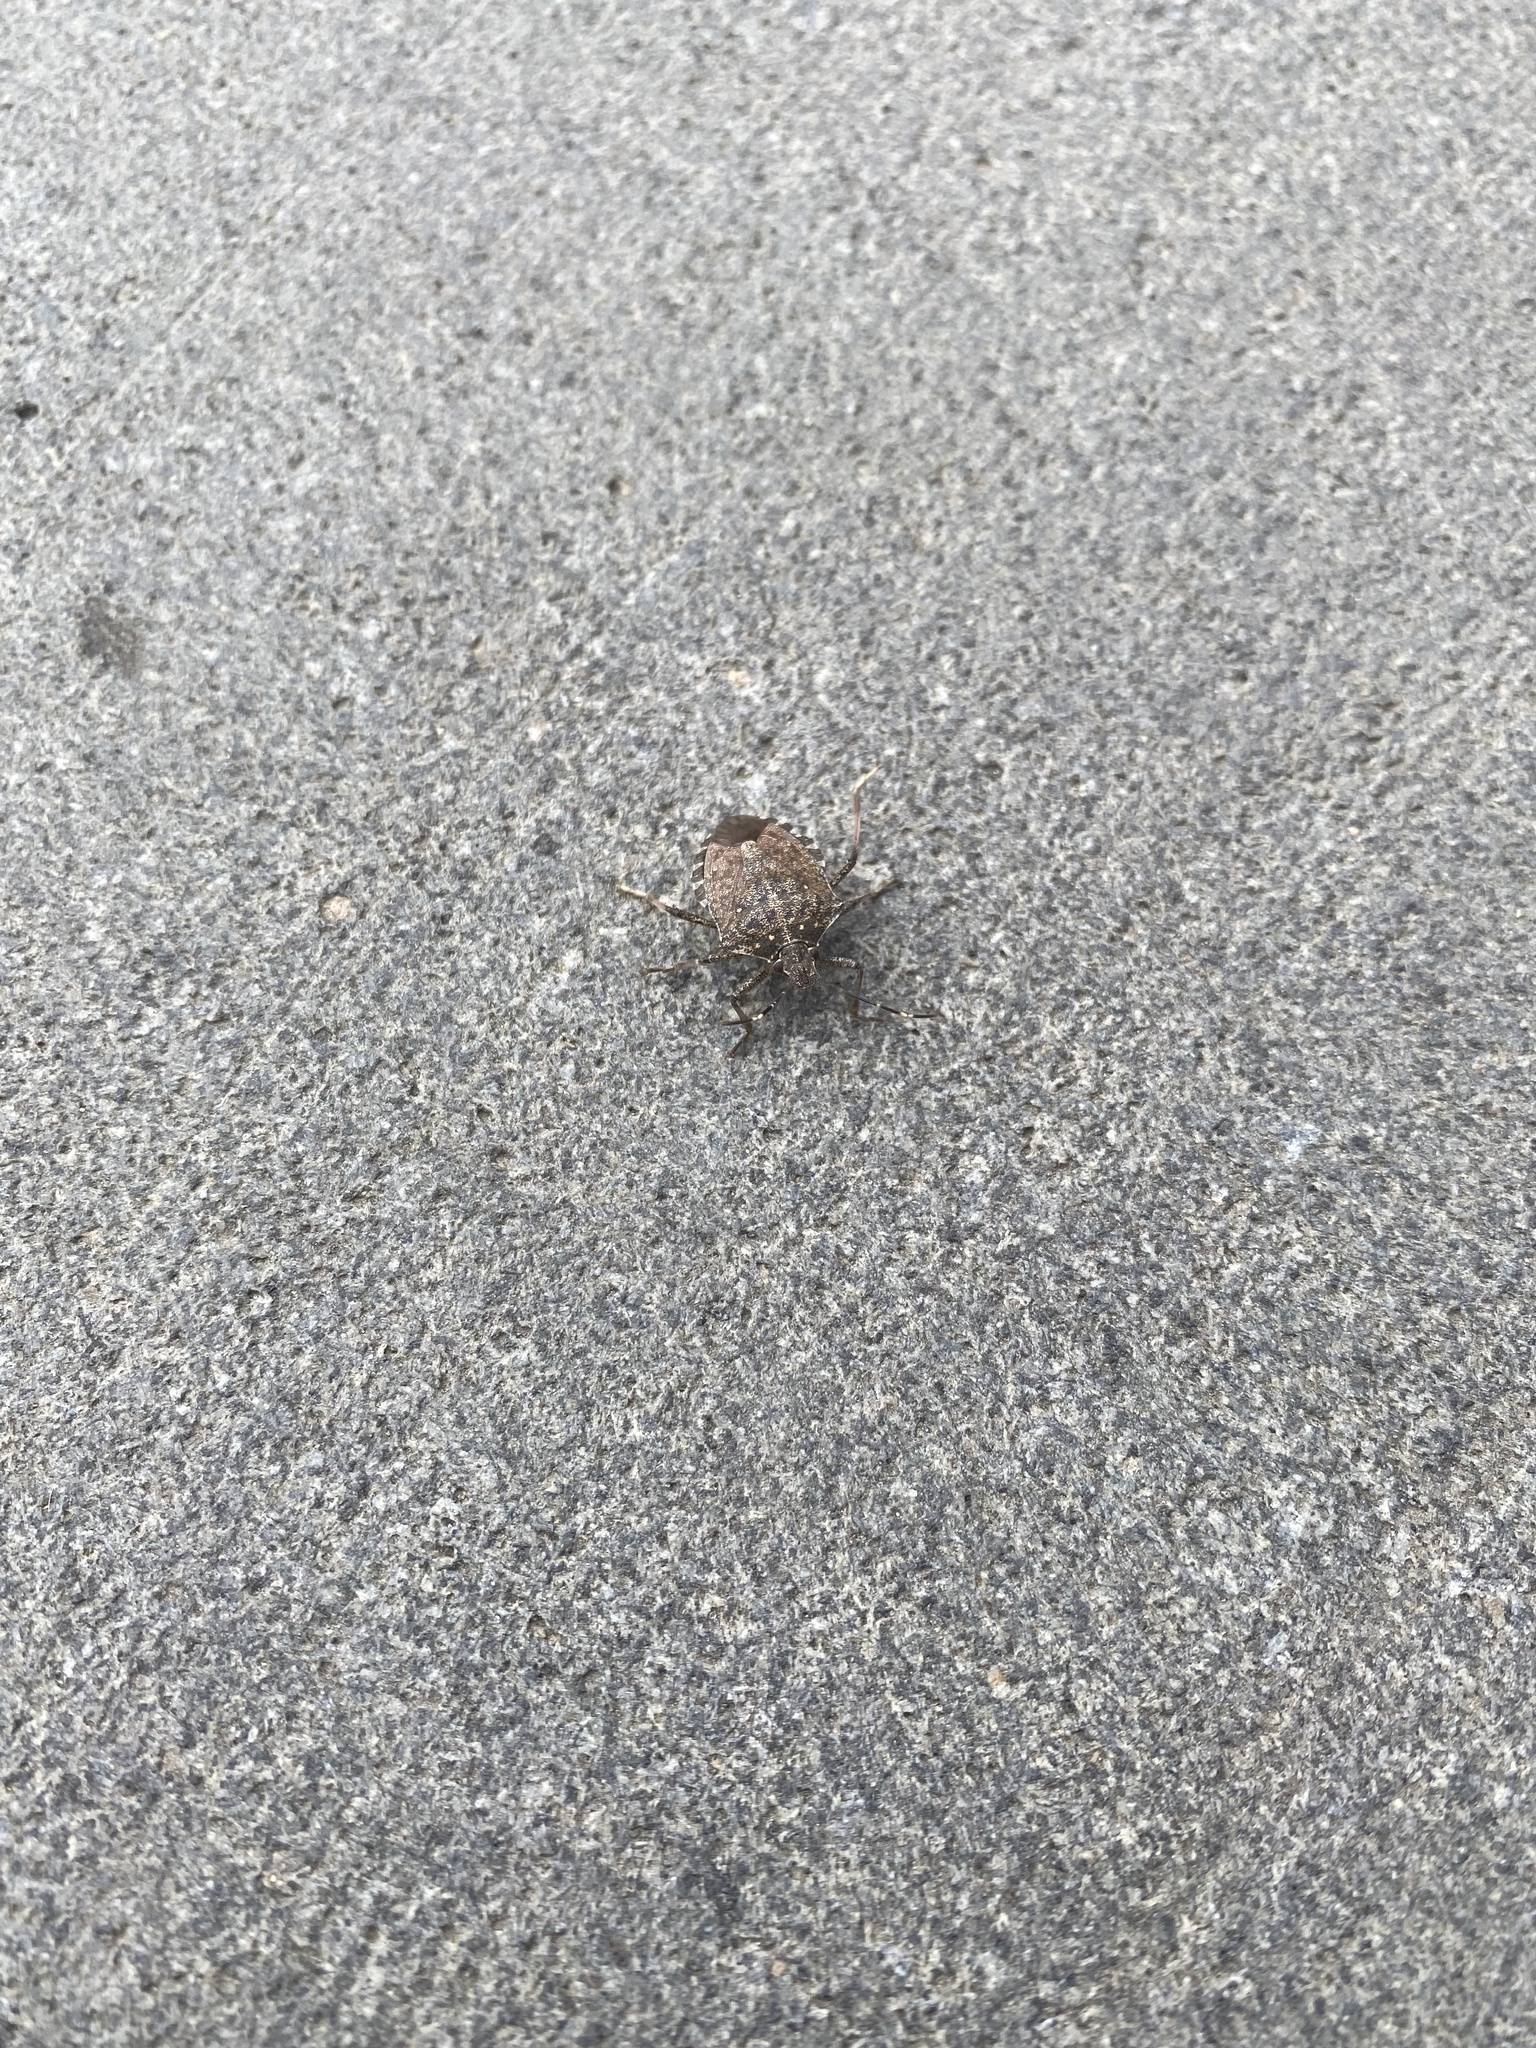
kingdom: Animalia
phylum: Arthropoda
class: Insecta
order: Hemiptera
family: Pentatomidae
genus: Halyomorpha
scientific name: Halyomorpha halys
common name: Brown marmorated stink bug
